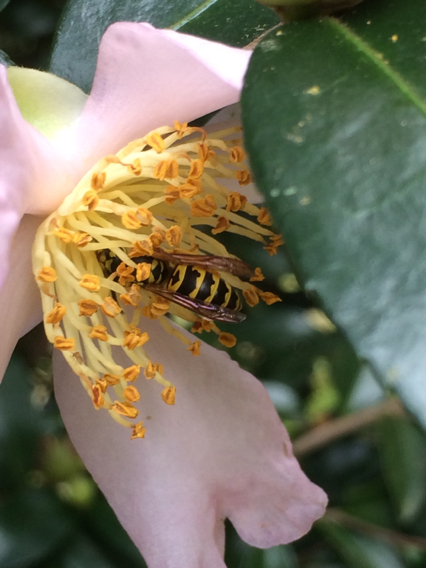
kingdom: Animalia
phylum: Arthropoda
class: Insecta
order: Hymenoptera
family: Vespidae
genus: Vespula
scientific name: Vespula maculifrons
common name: Eastern yellowjacket
